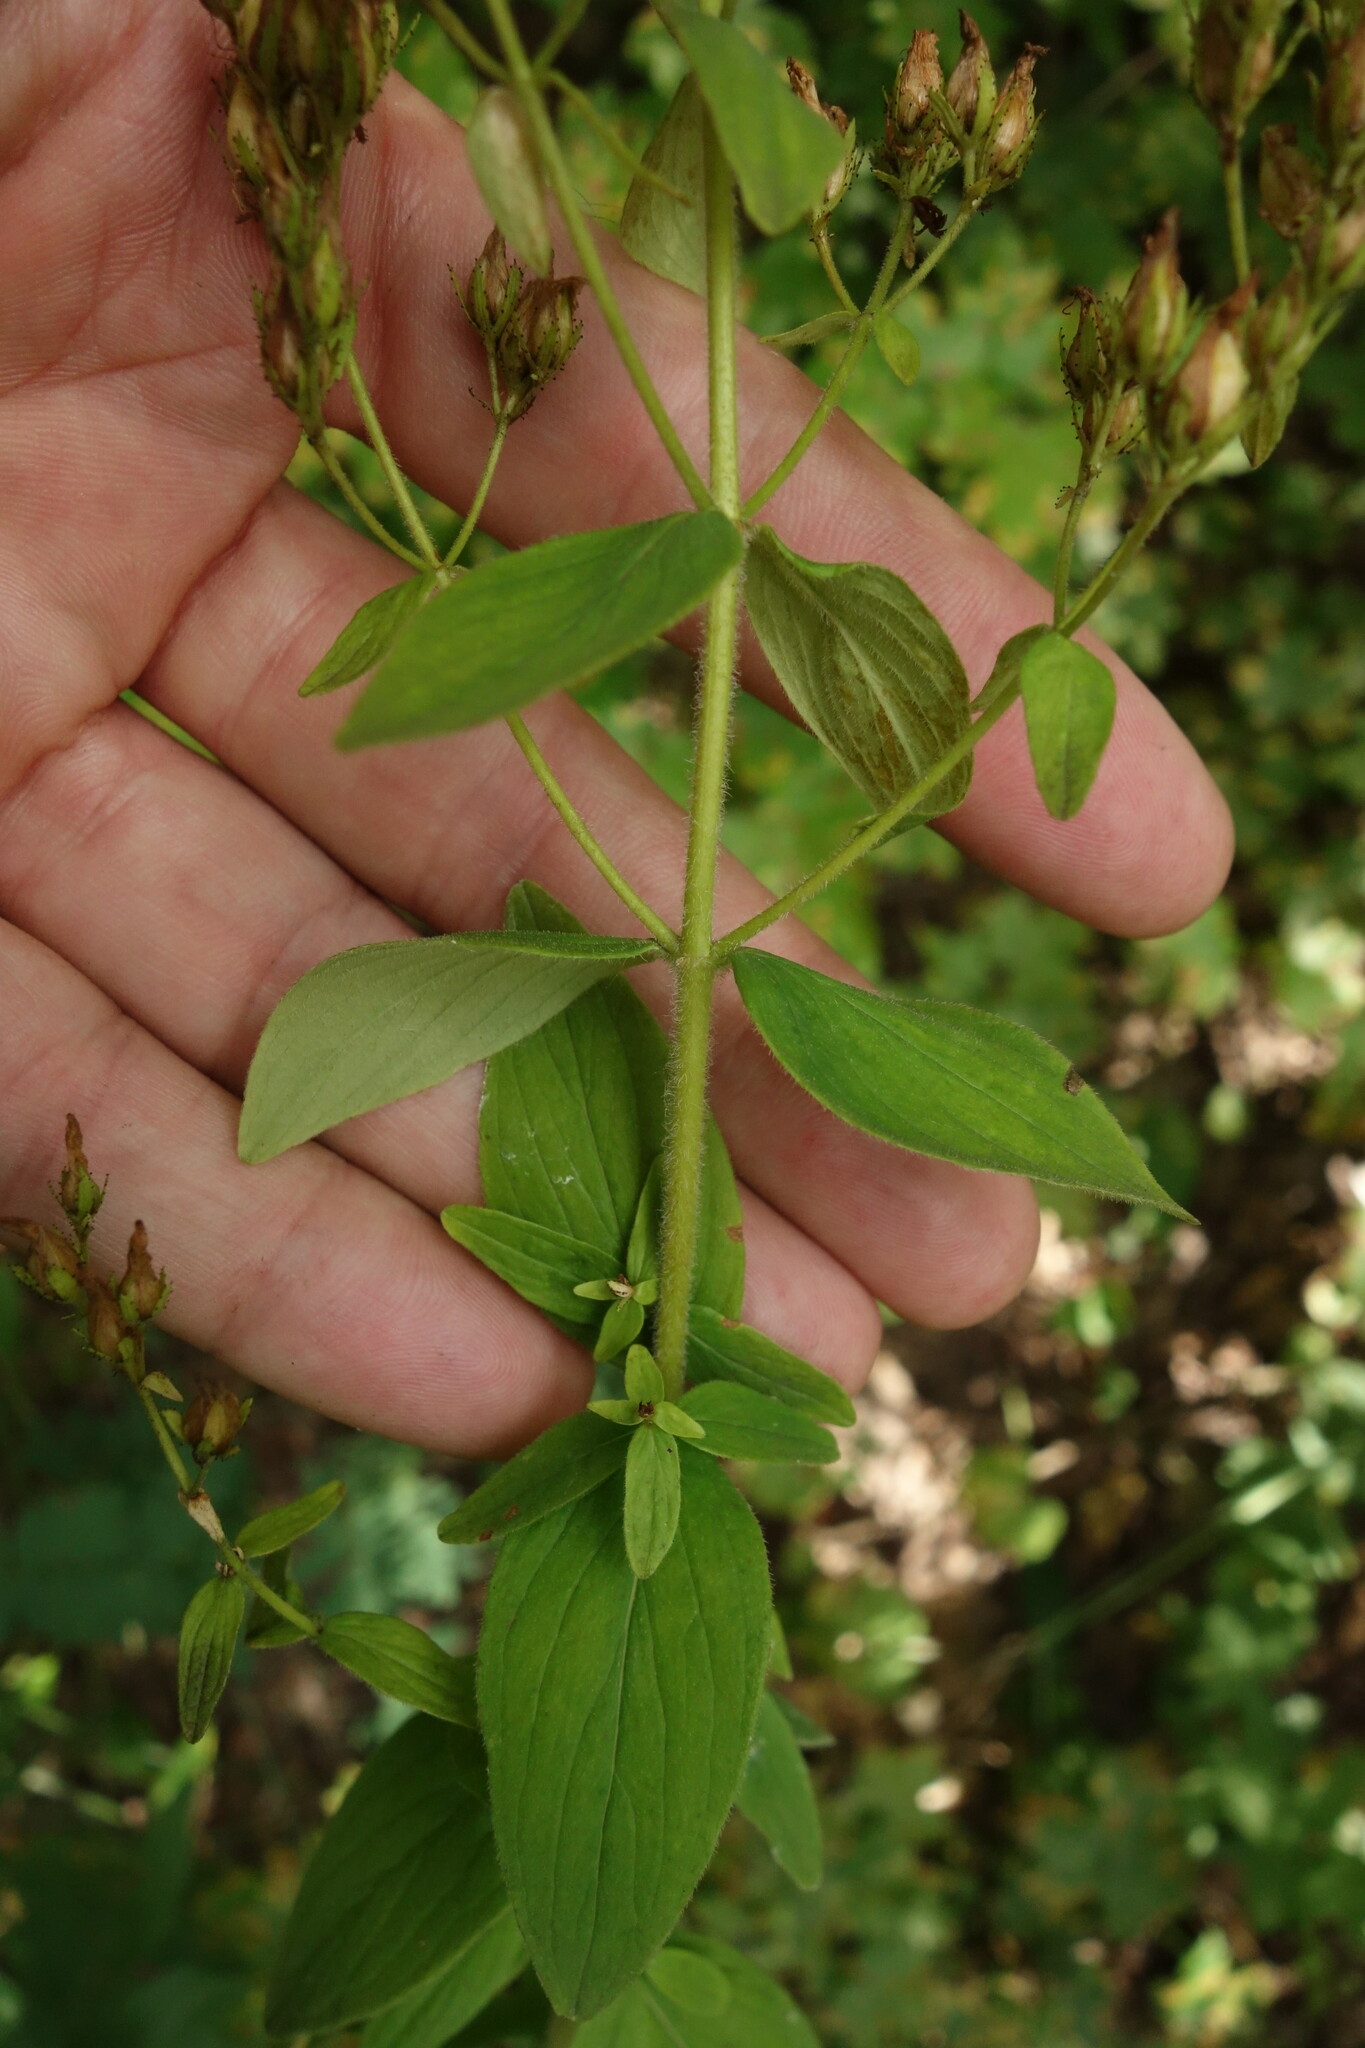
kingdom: Plantae
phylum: Tracheophyta
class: Magnoliopsida
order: Malpighiales
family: Hypericaceae
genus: Hypericum
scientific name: Hypericum hirsutum
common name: Hairy st. john's-wort
